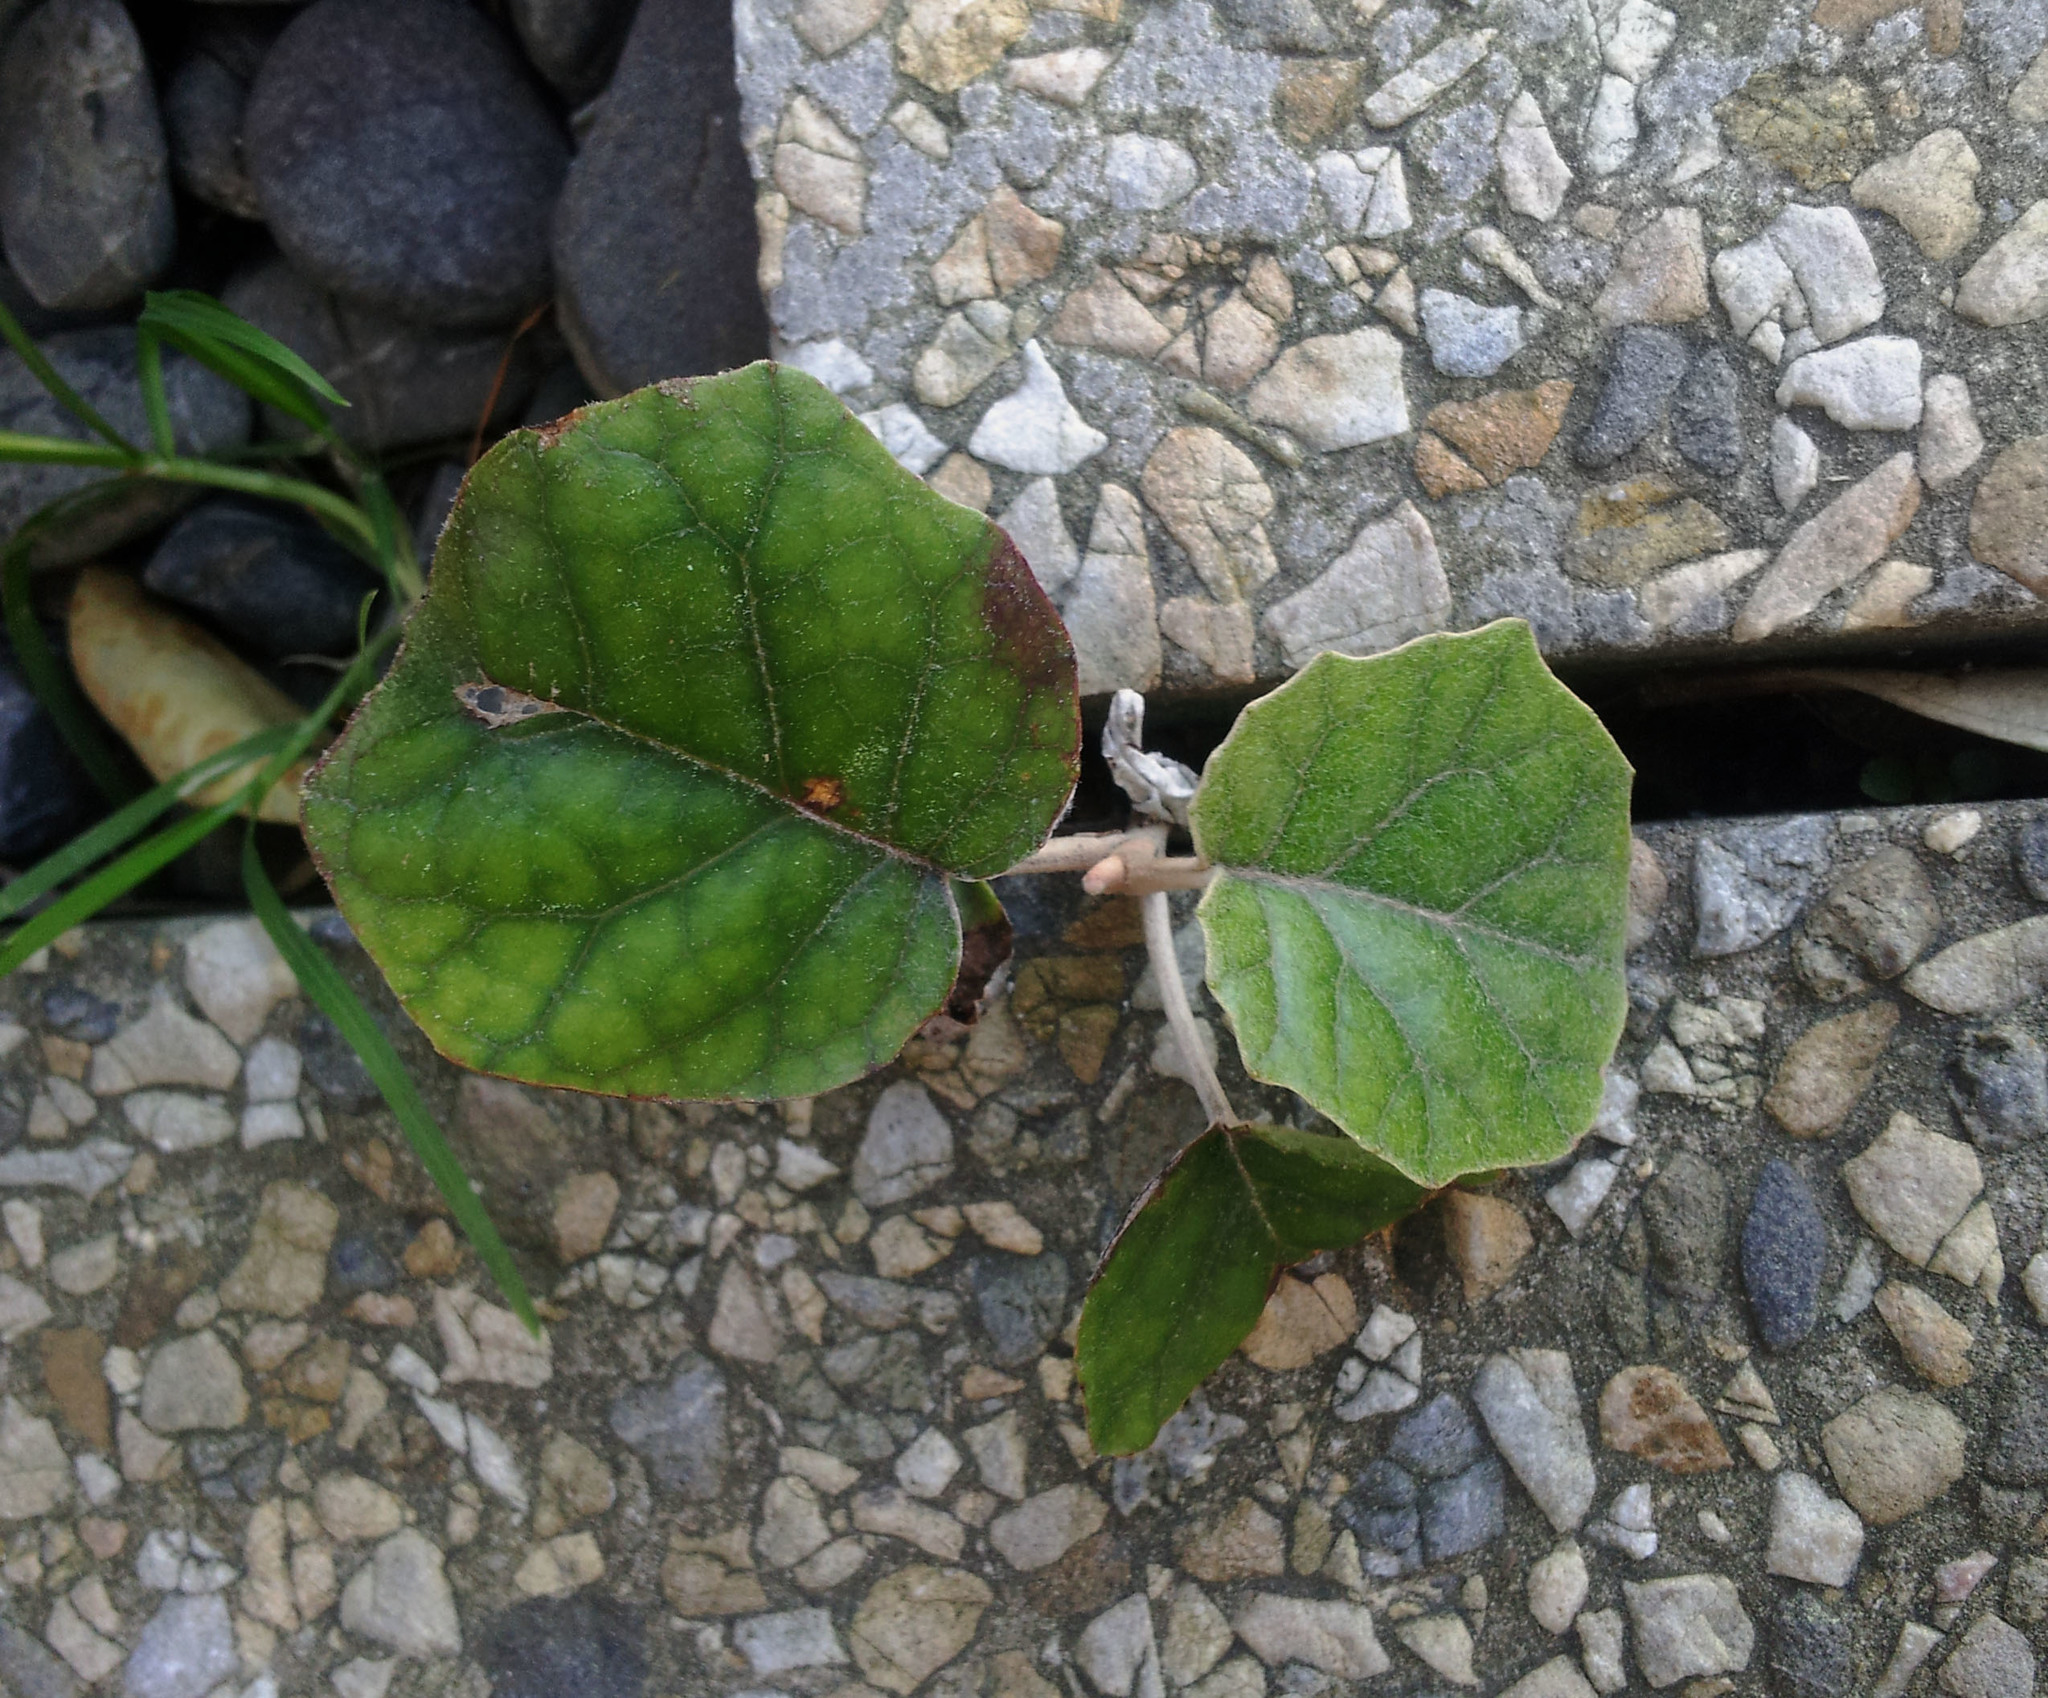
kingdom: Plantae
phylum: Tracheophyta
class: Magnoliopsida
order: Asterales
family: Asteraceae
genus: Brachyglottis
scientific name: Brachyglottis repanda
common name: Hedge ragwort
